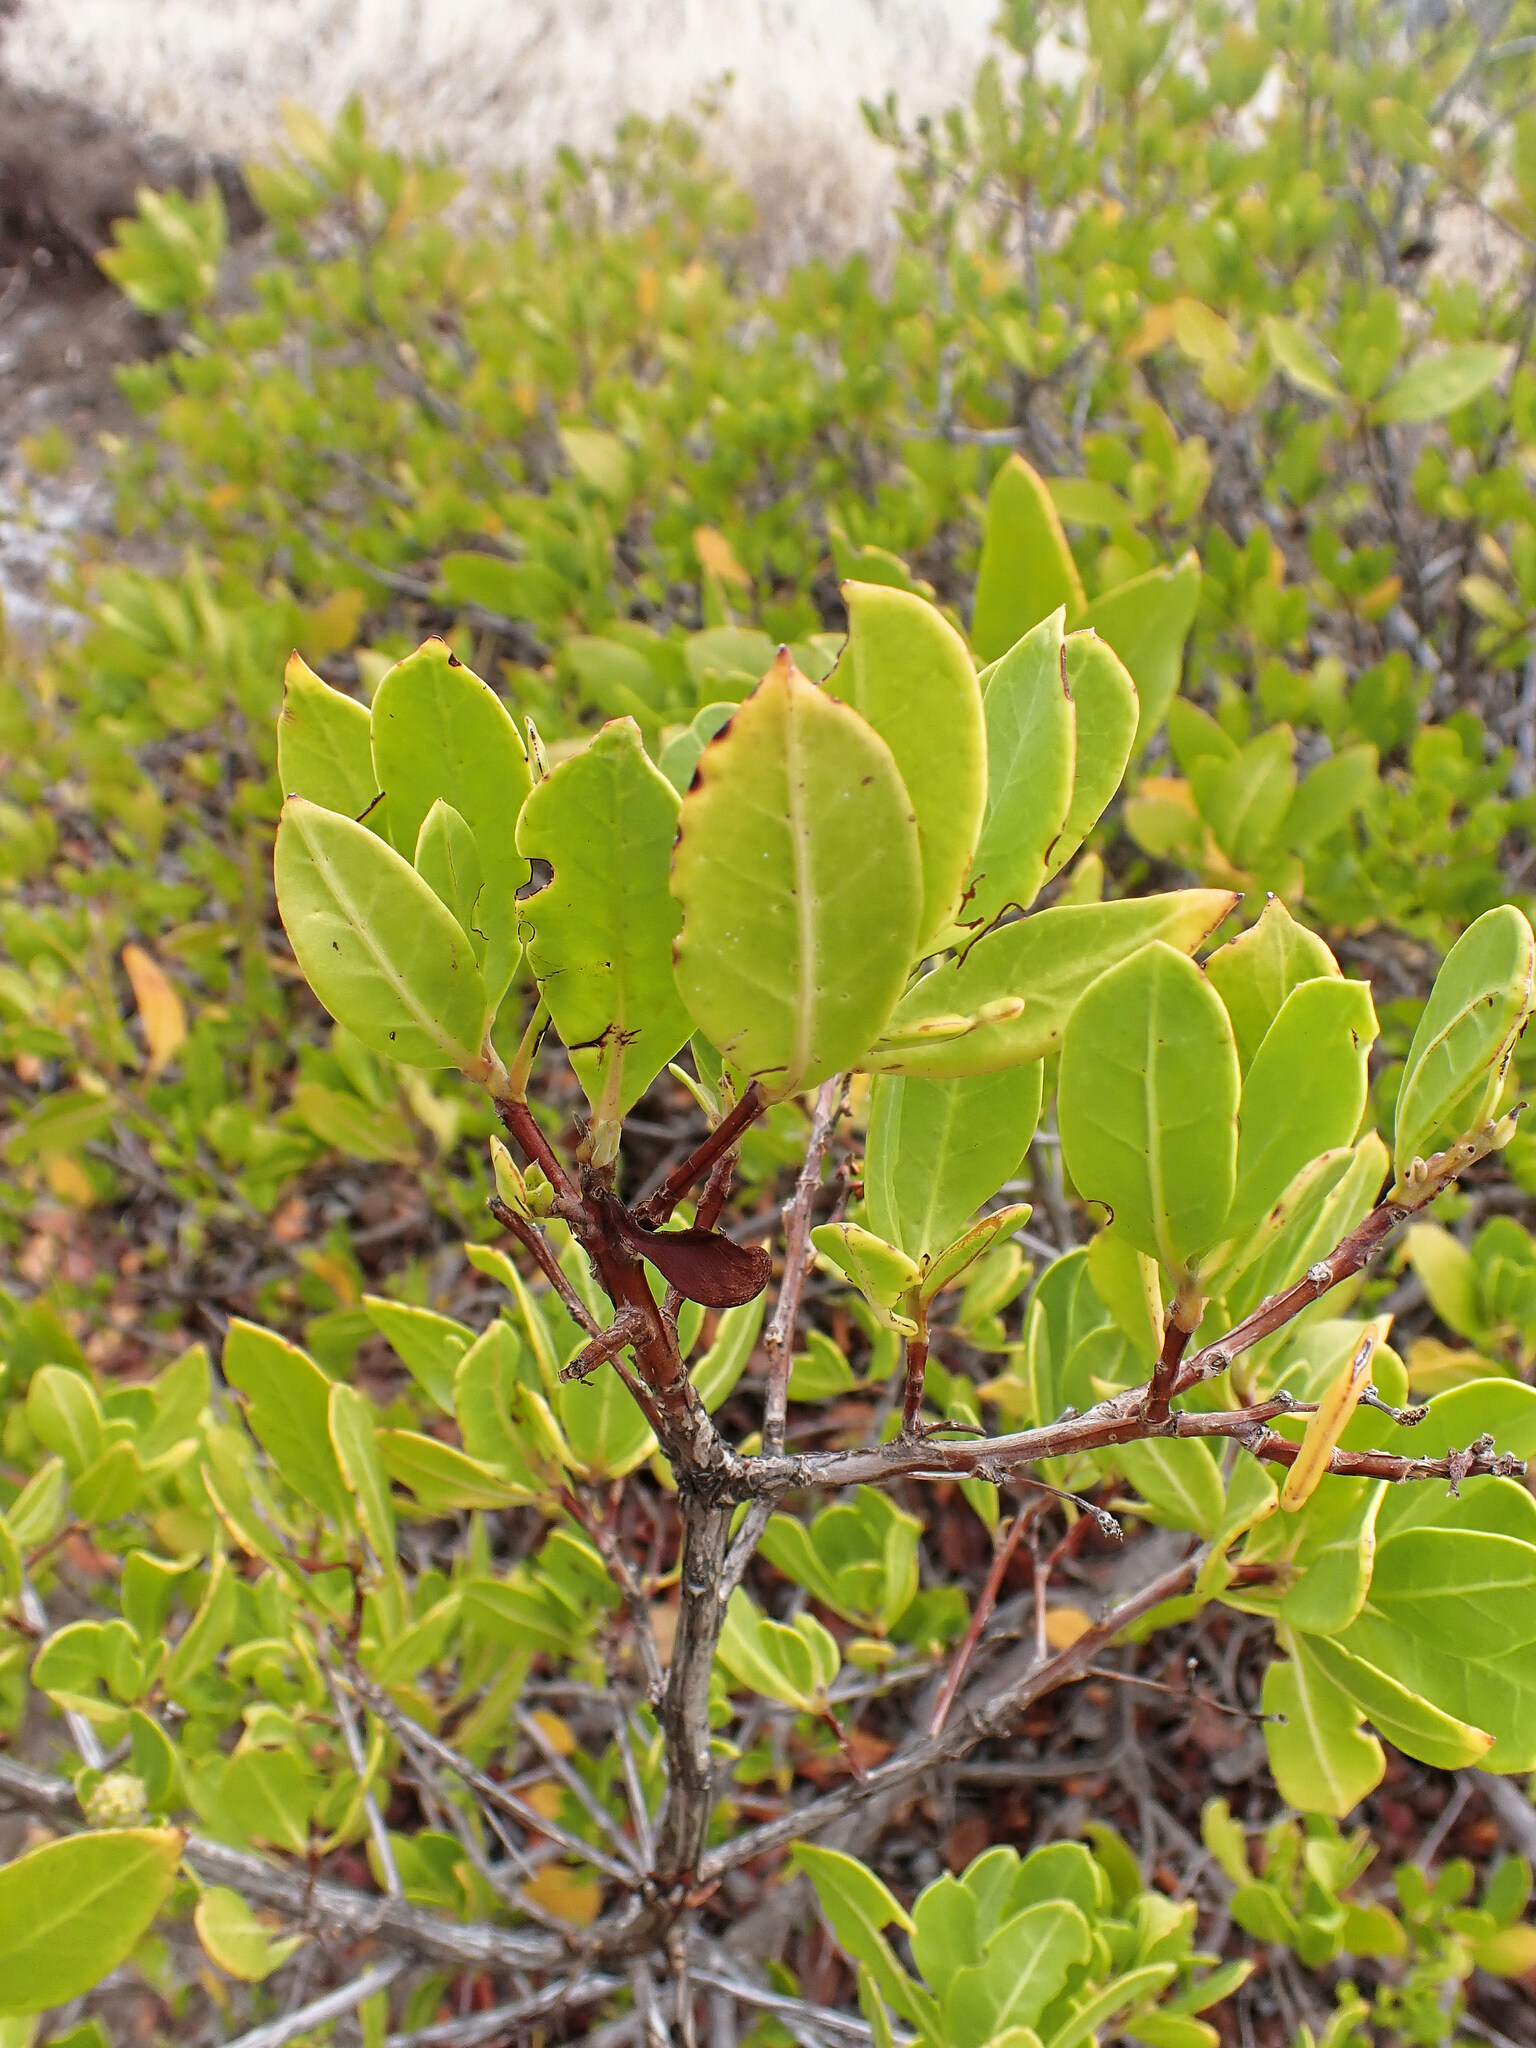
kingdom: Plantae
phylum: Tracheophyta
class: Magnoliopsida
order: Myrtales
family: Combretaceae
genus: Conocarpus
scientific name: Conocarpus erectus
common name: Button mangrove
